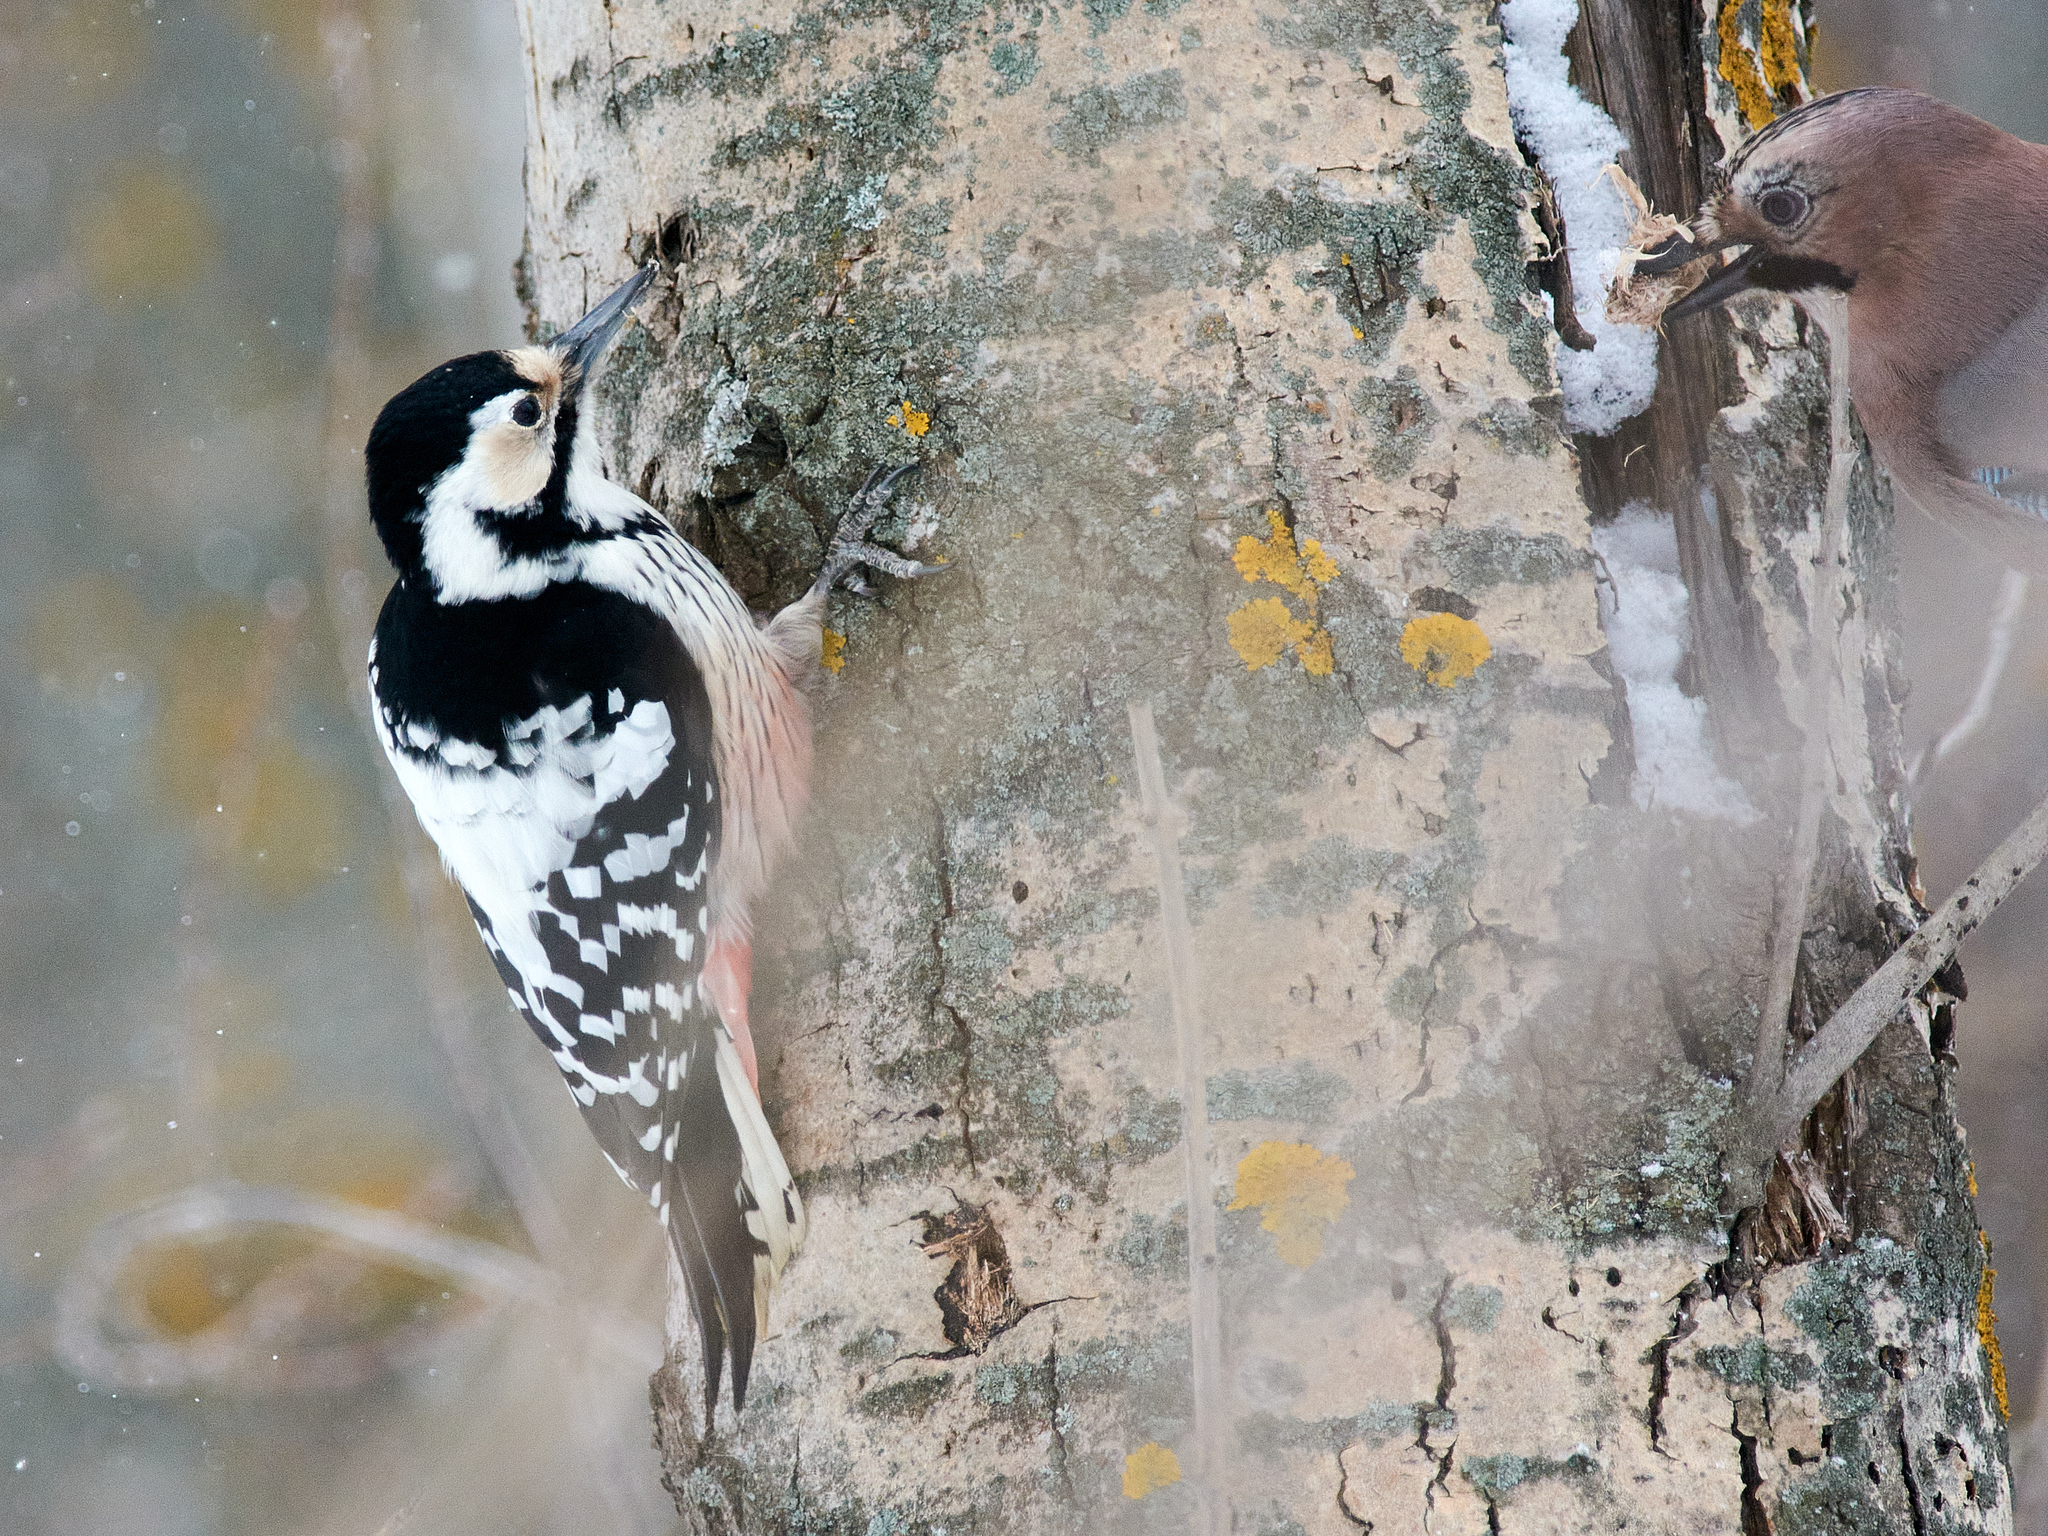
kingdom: Animalia
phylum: Chordata
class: Aves
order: Piciformes
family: Picidae
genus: Dendrocopos
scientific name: Dendrocopos leucotos
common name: White-backed woodpecker
